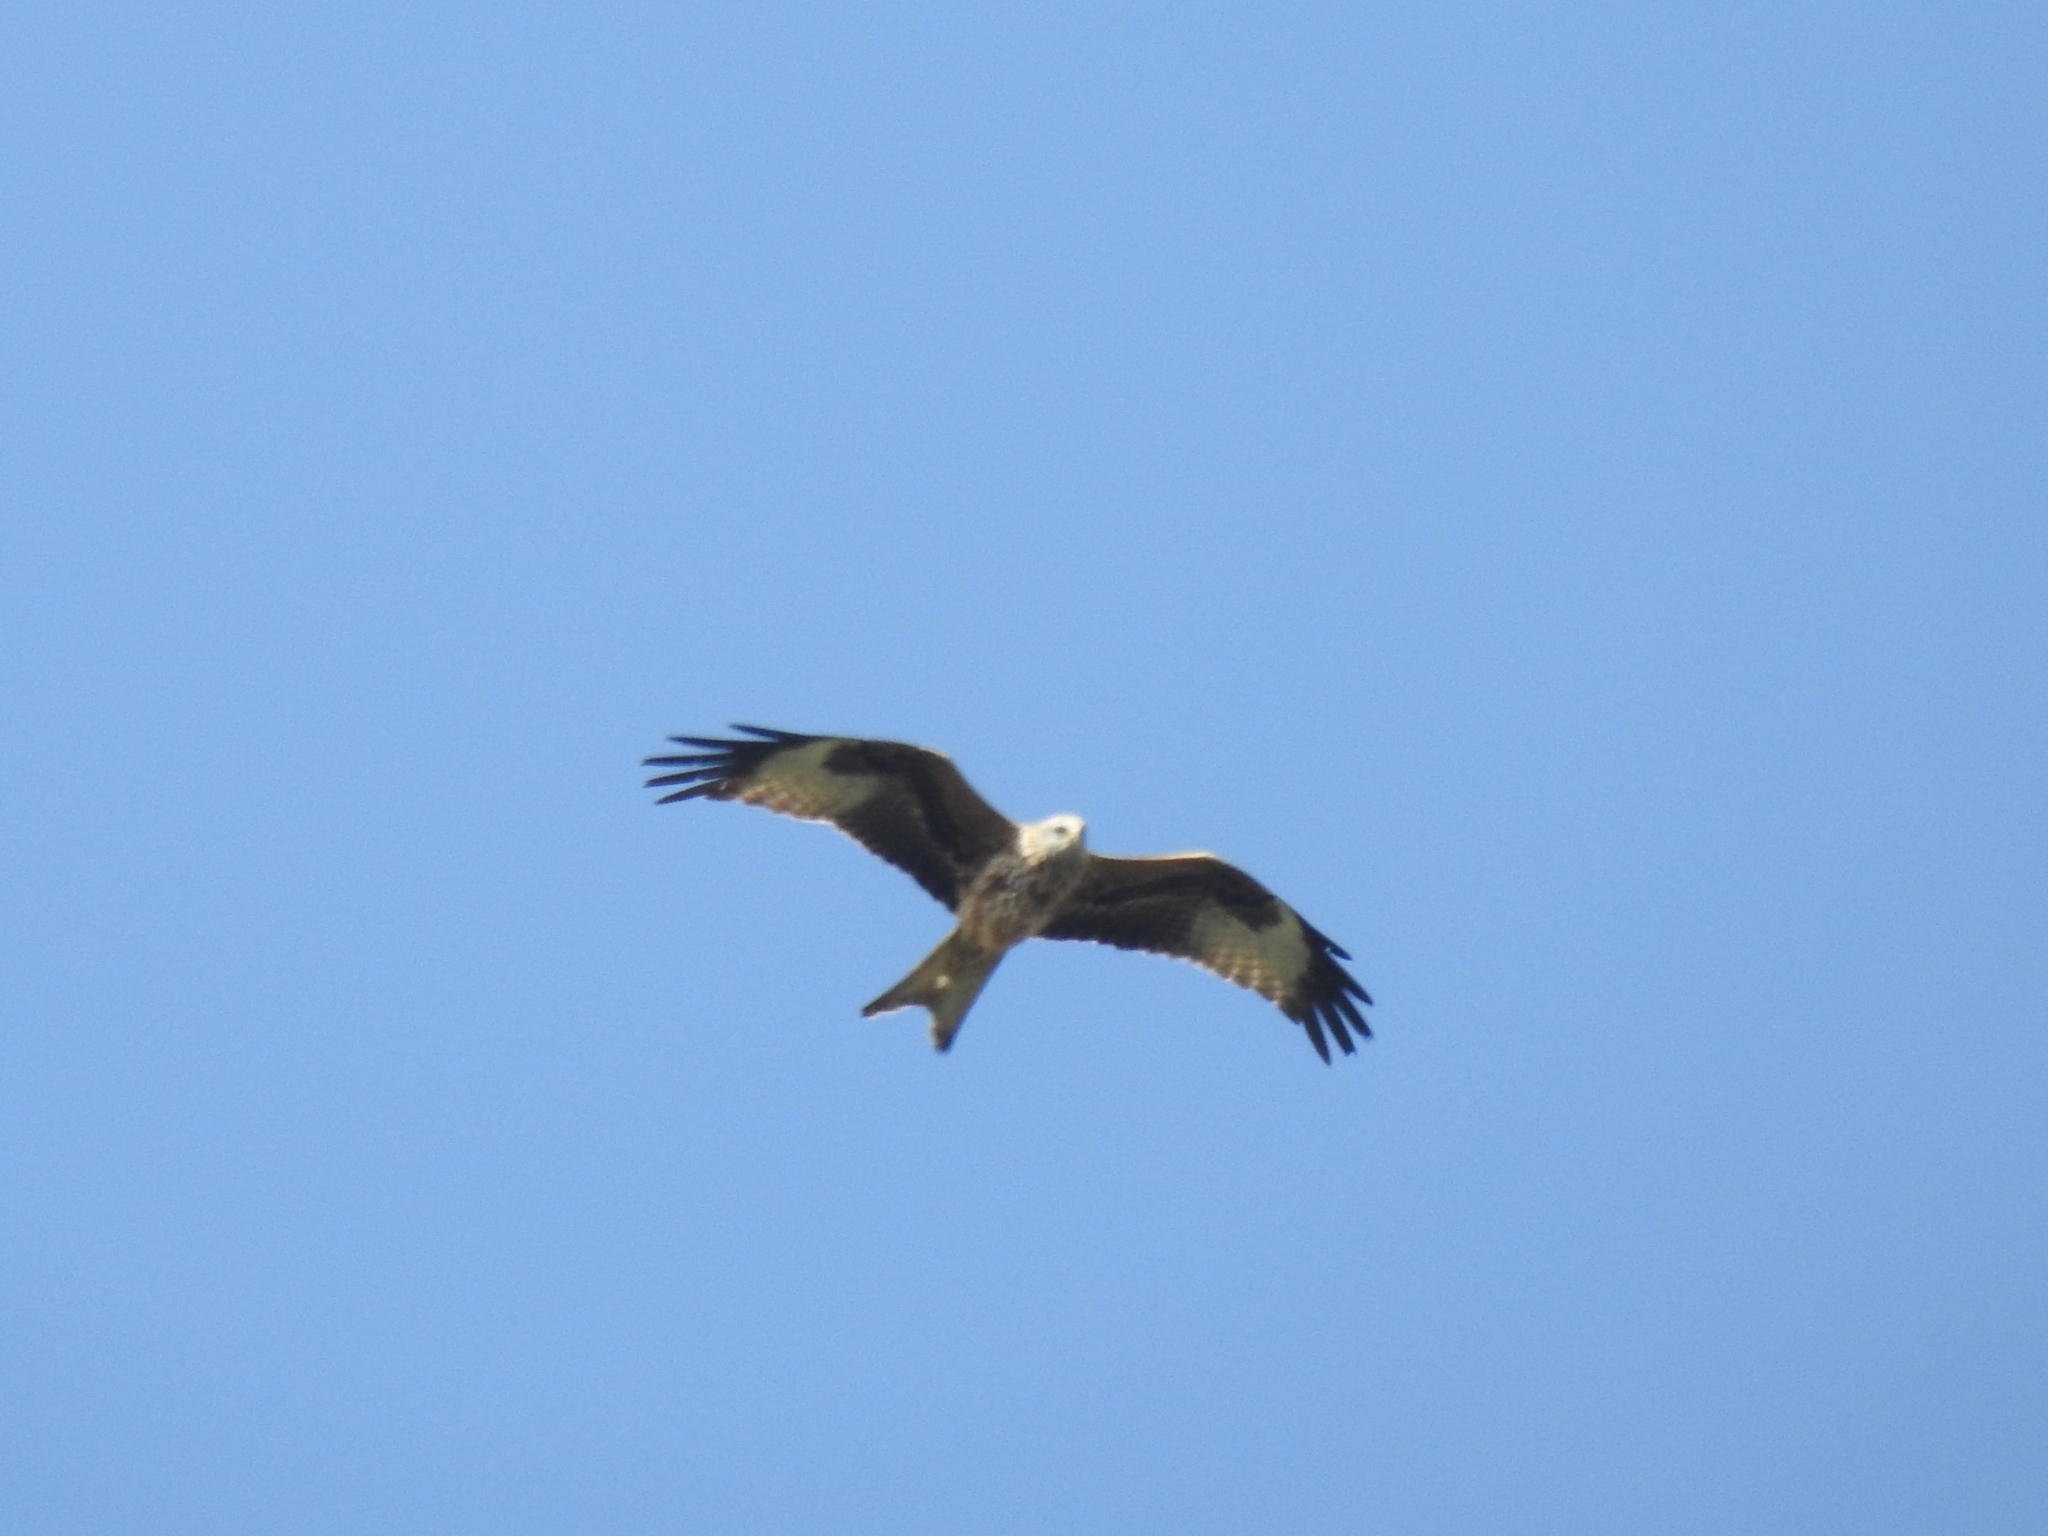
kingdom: Animalia
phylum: Chordata
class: Aves
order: Accipitriformes
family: Accipitridae
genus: Milvus
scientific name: Milvus milvus
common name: Red kite
